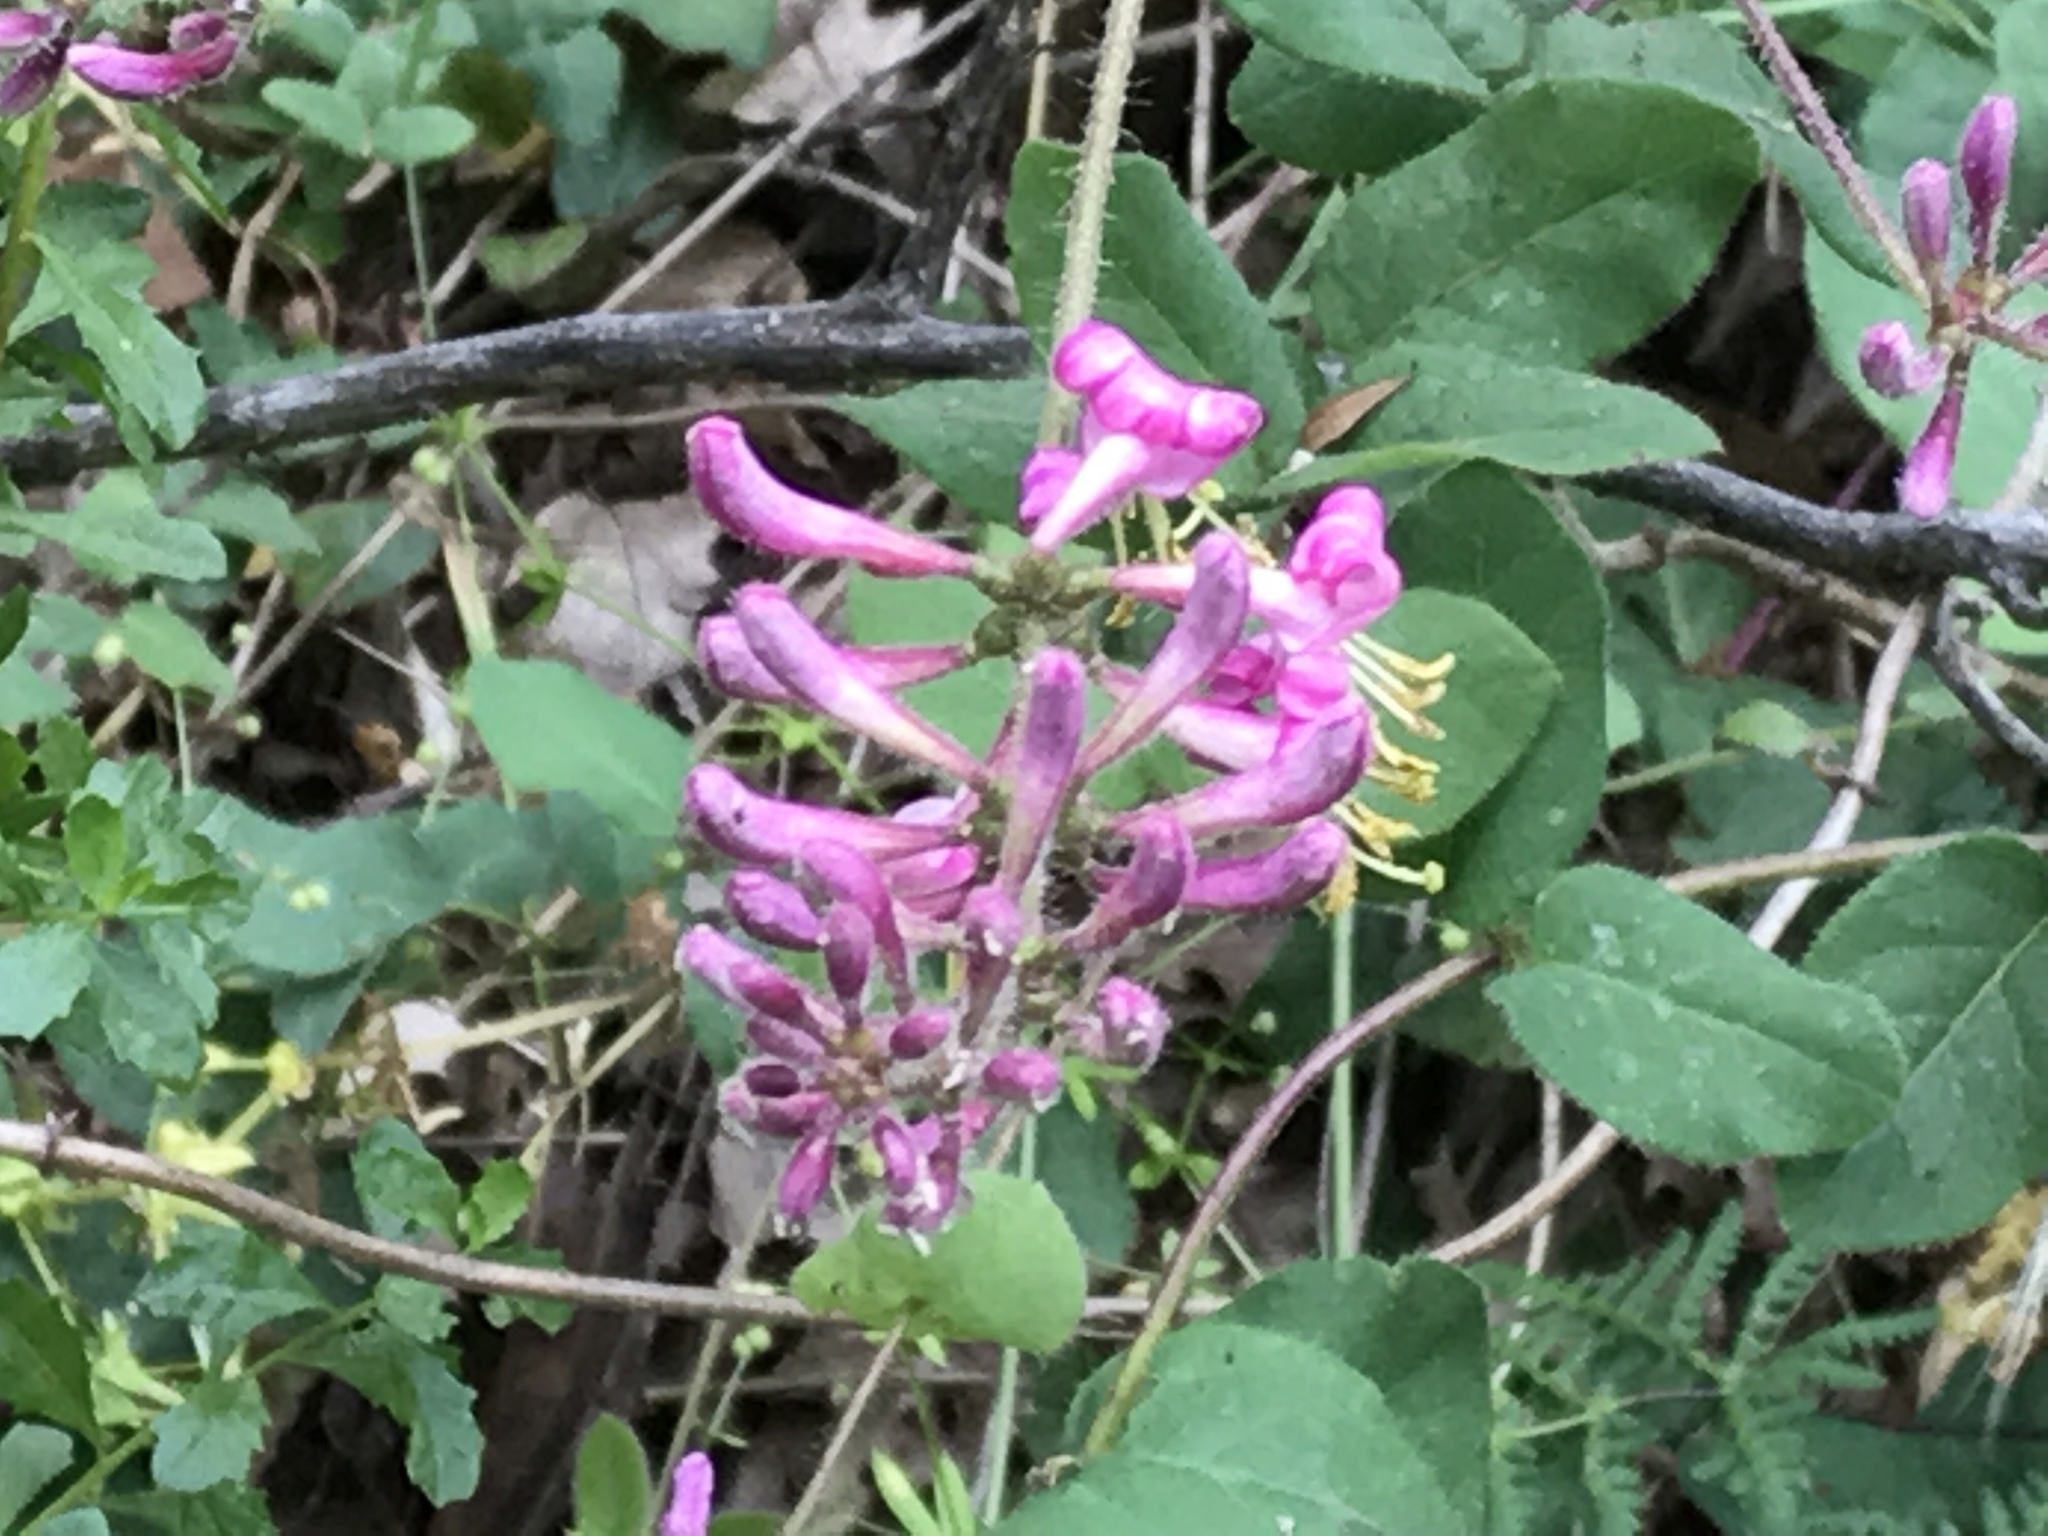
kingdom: Plantae
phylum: Tracheophyta
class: Magnoliopsida
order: Dipsacales
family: Caprifoliaceae
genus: Lonicera
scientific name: Lonicera hispidula
